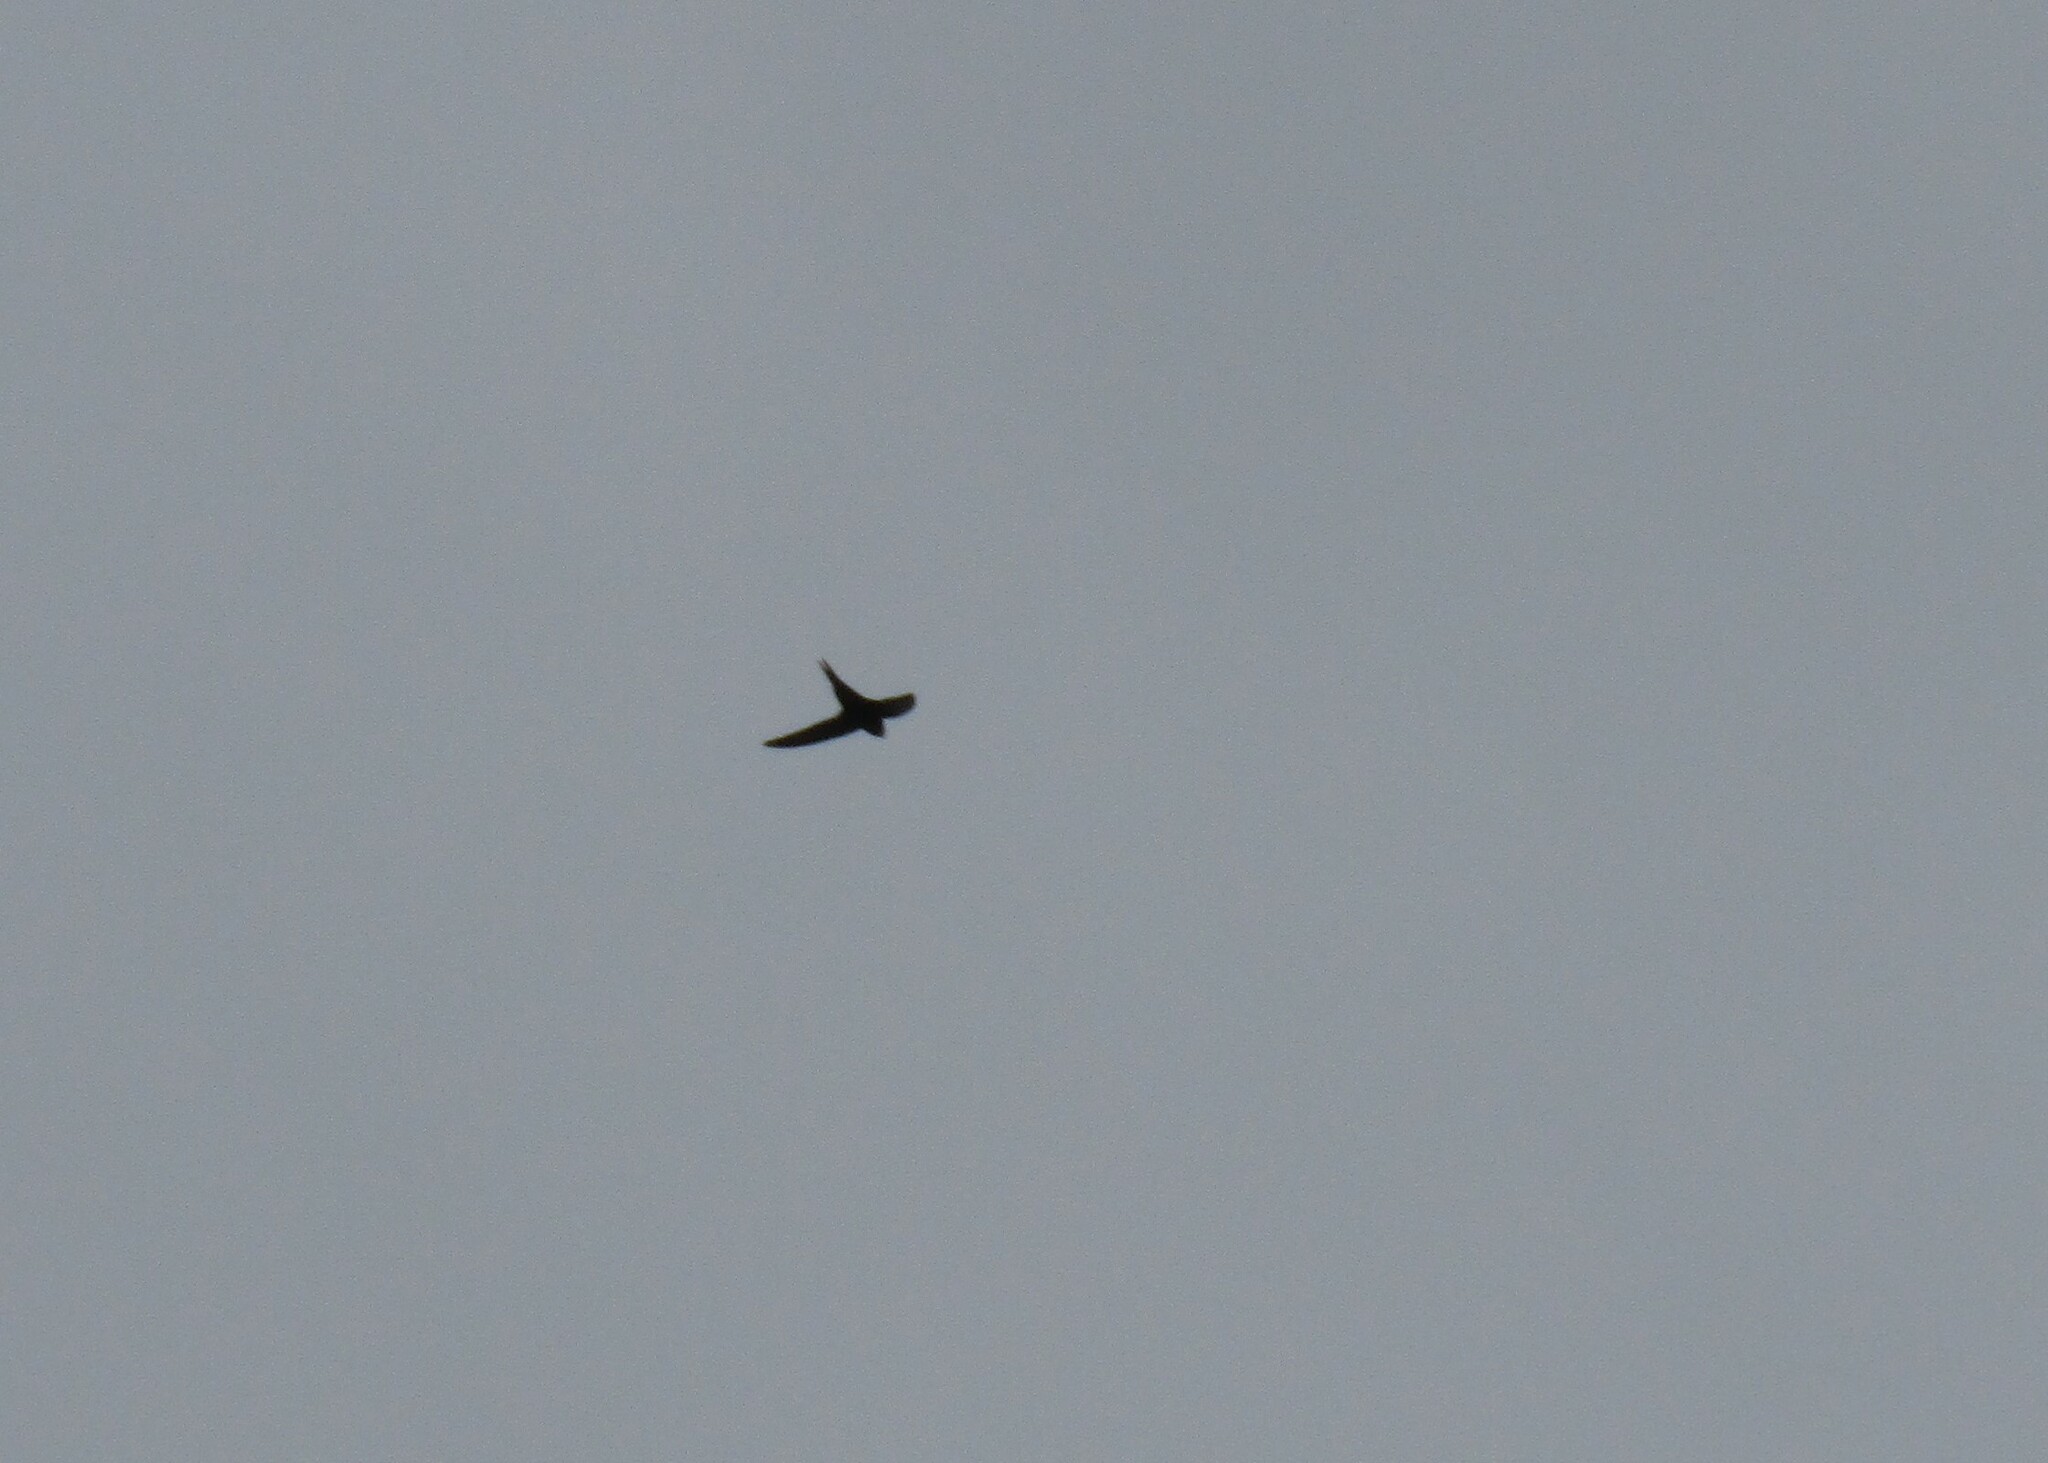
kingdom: Animalia
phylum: Chordata
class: Aves
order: Apodiformes
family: Apodidae
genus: Apus
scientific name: Apus apus
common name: Common swift
